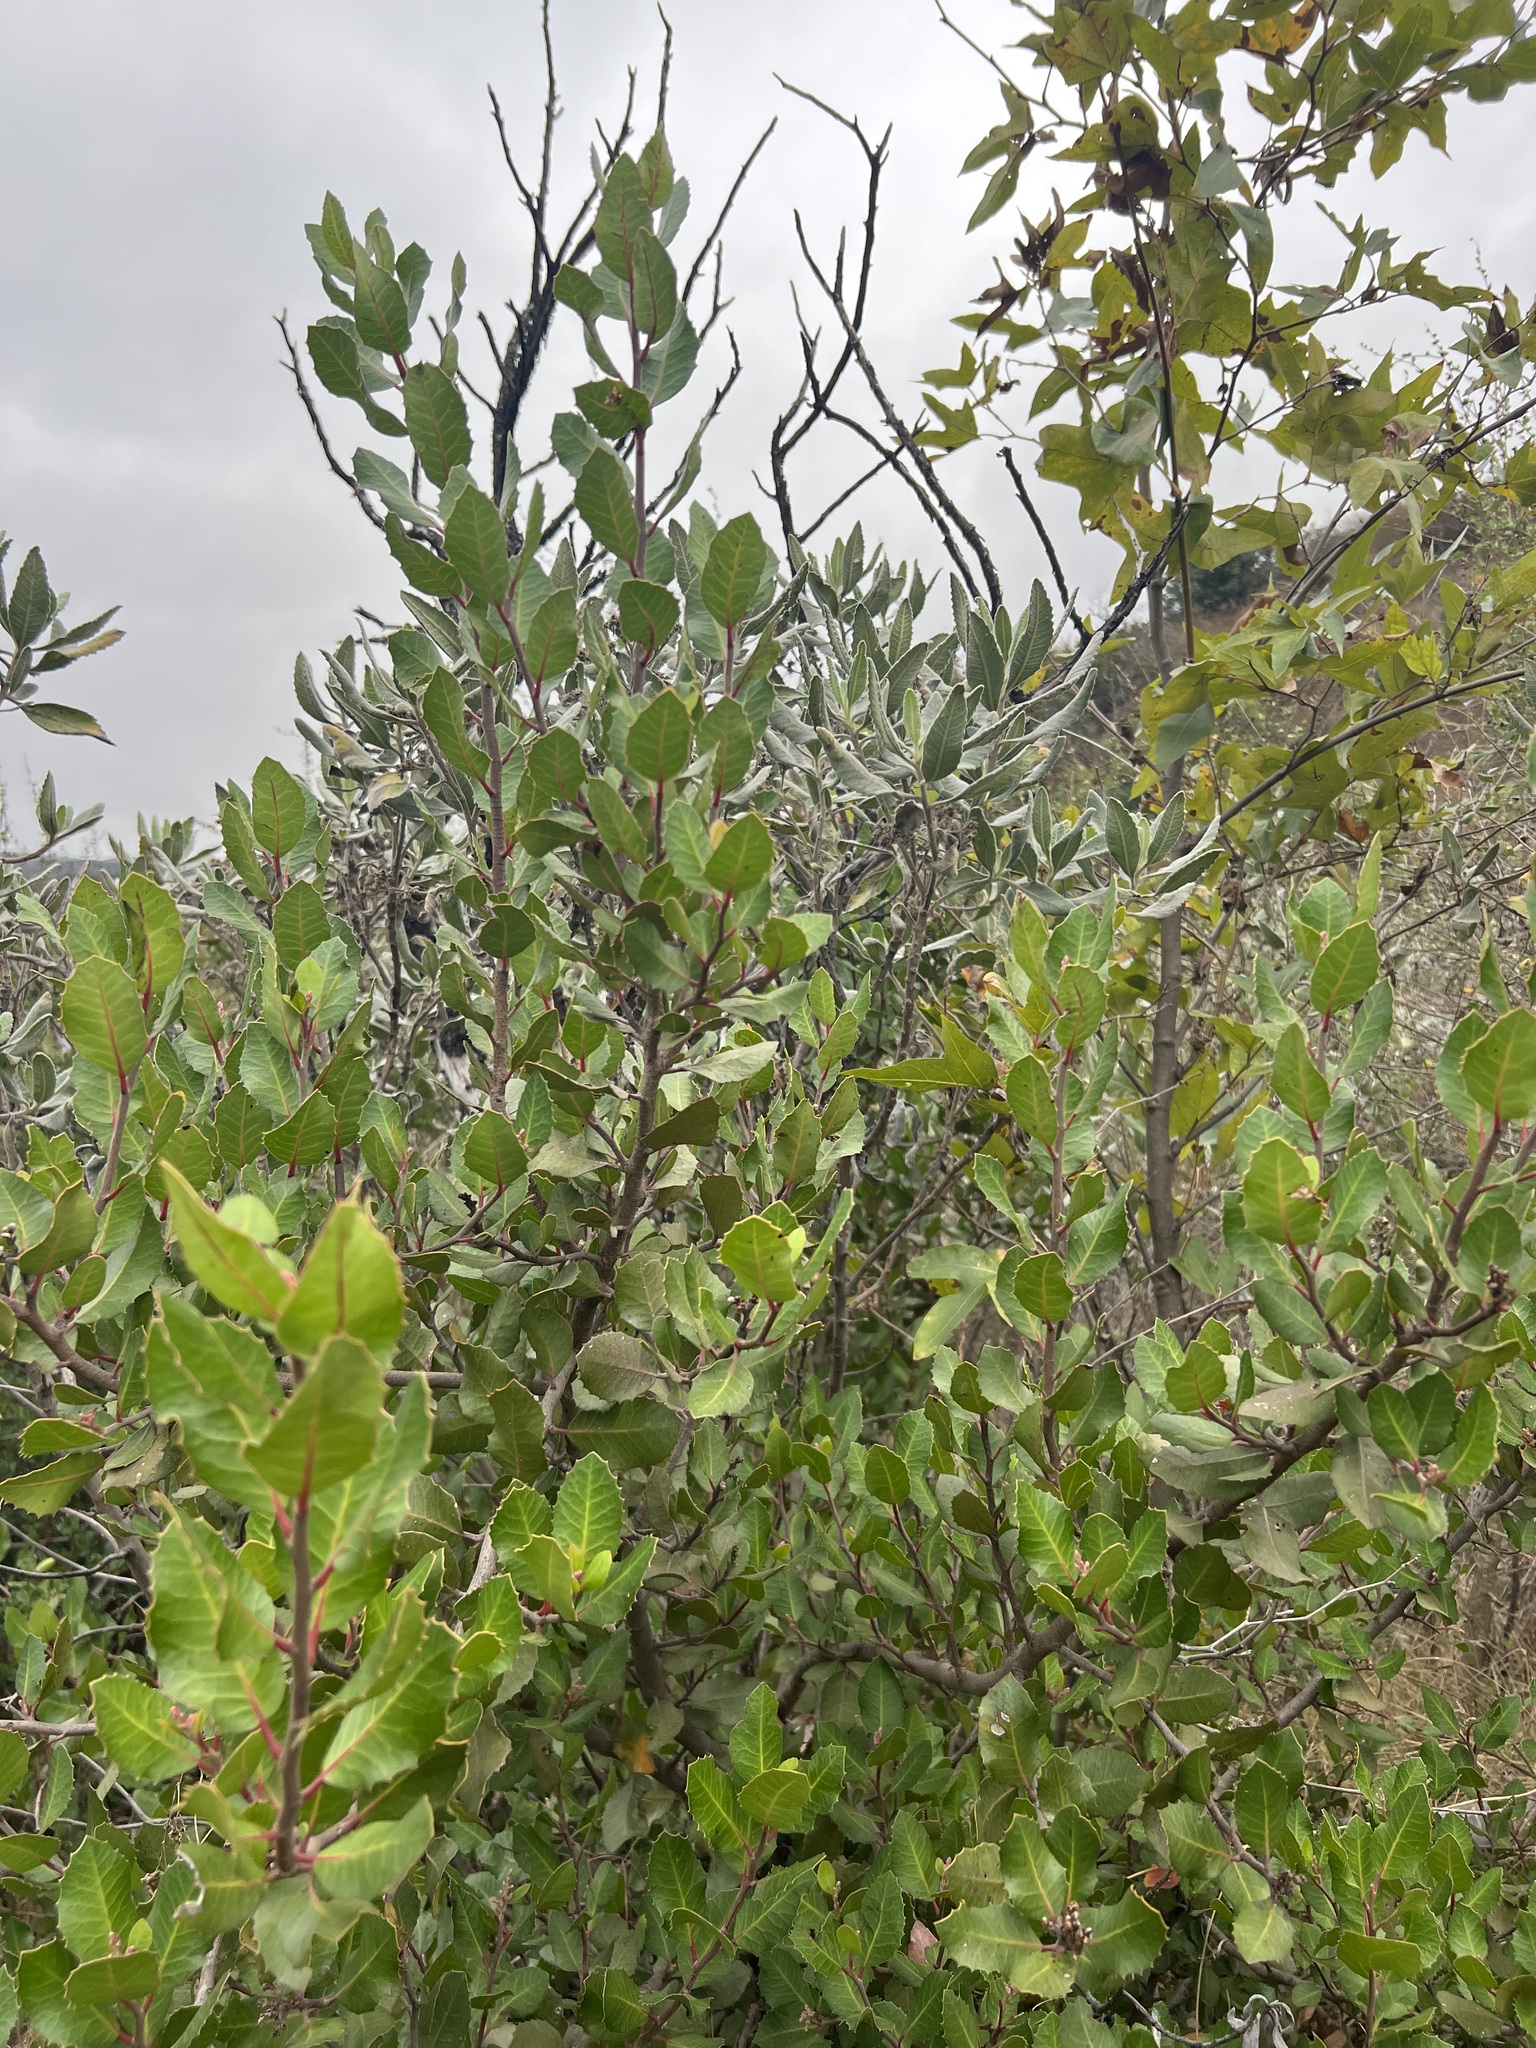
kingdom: Plantae
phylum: Tracheophyta
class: Magnoliopsida
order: Sapindales
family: Anacardiaceae
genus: Rhus
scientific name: Rhus integrifolia
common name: Lemonade sumac
